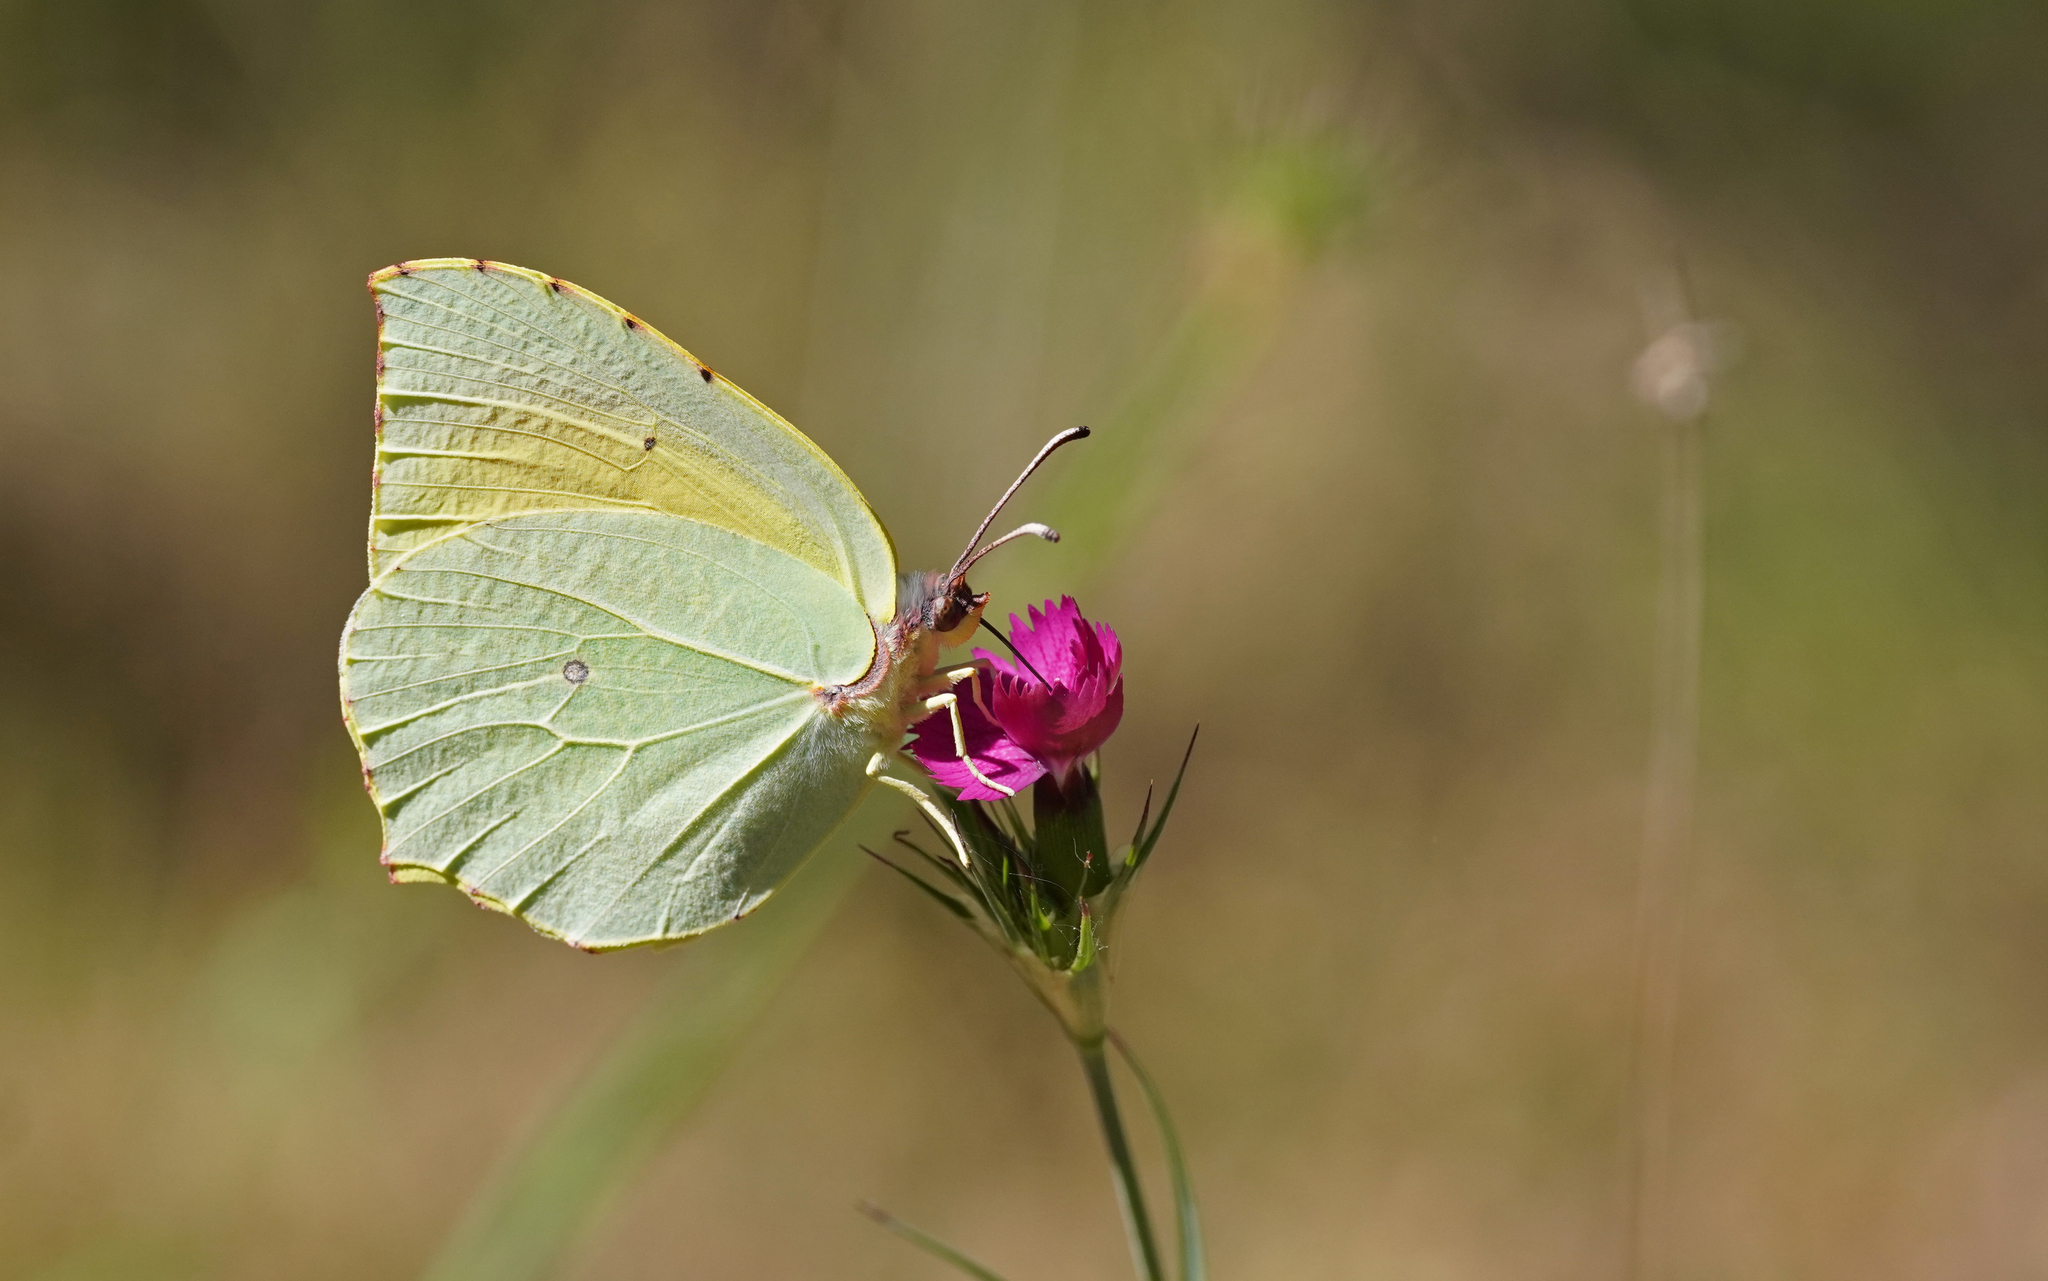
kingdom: Animalia
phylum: Arthropoda
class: Insecta
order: Lepidoptera
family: Pieridae
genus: Gonepteryx
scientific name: Gonepteryx cleopatra
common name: Cleopatra
